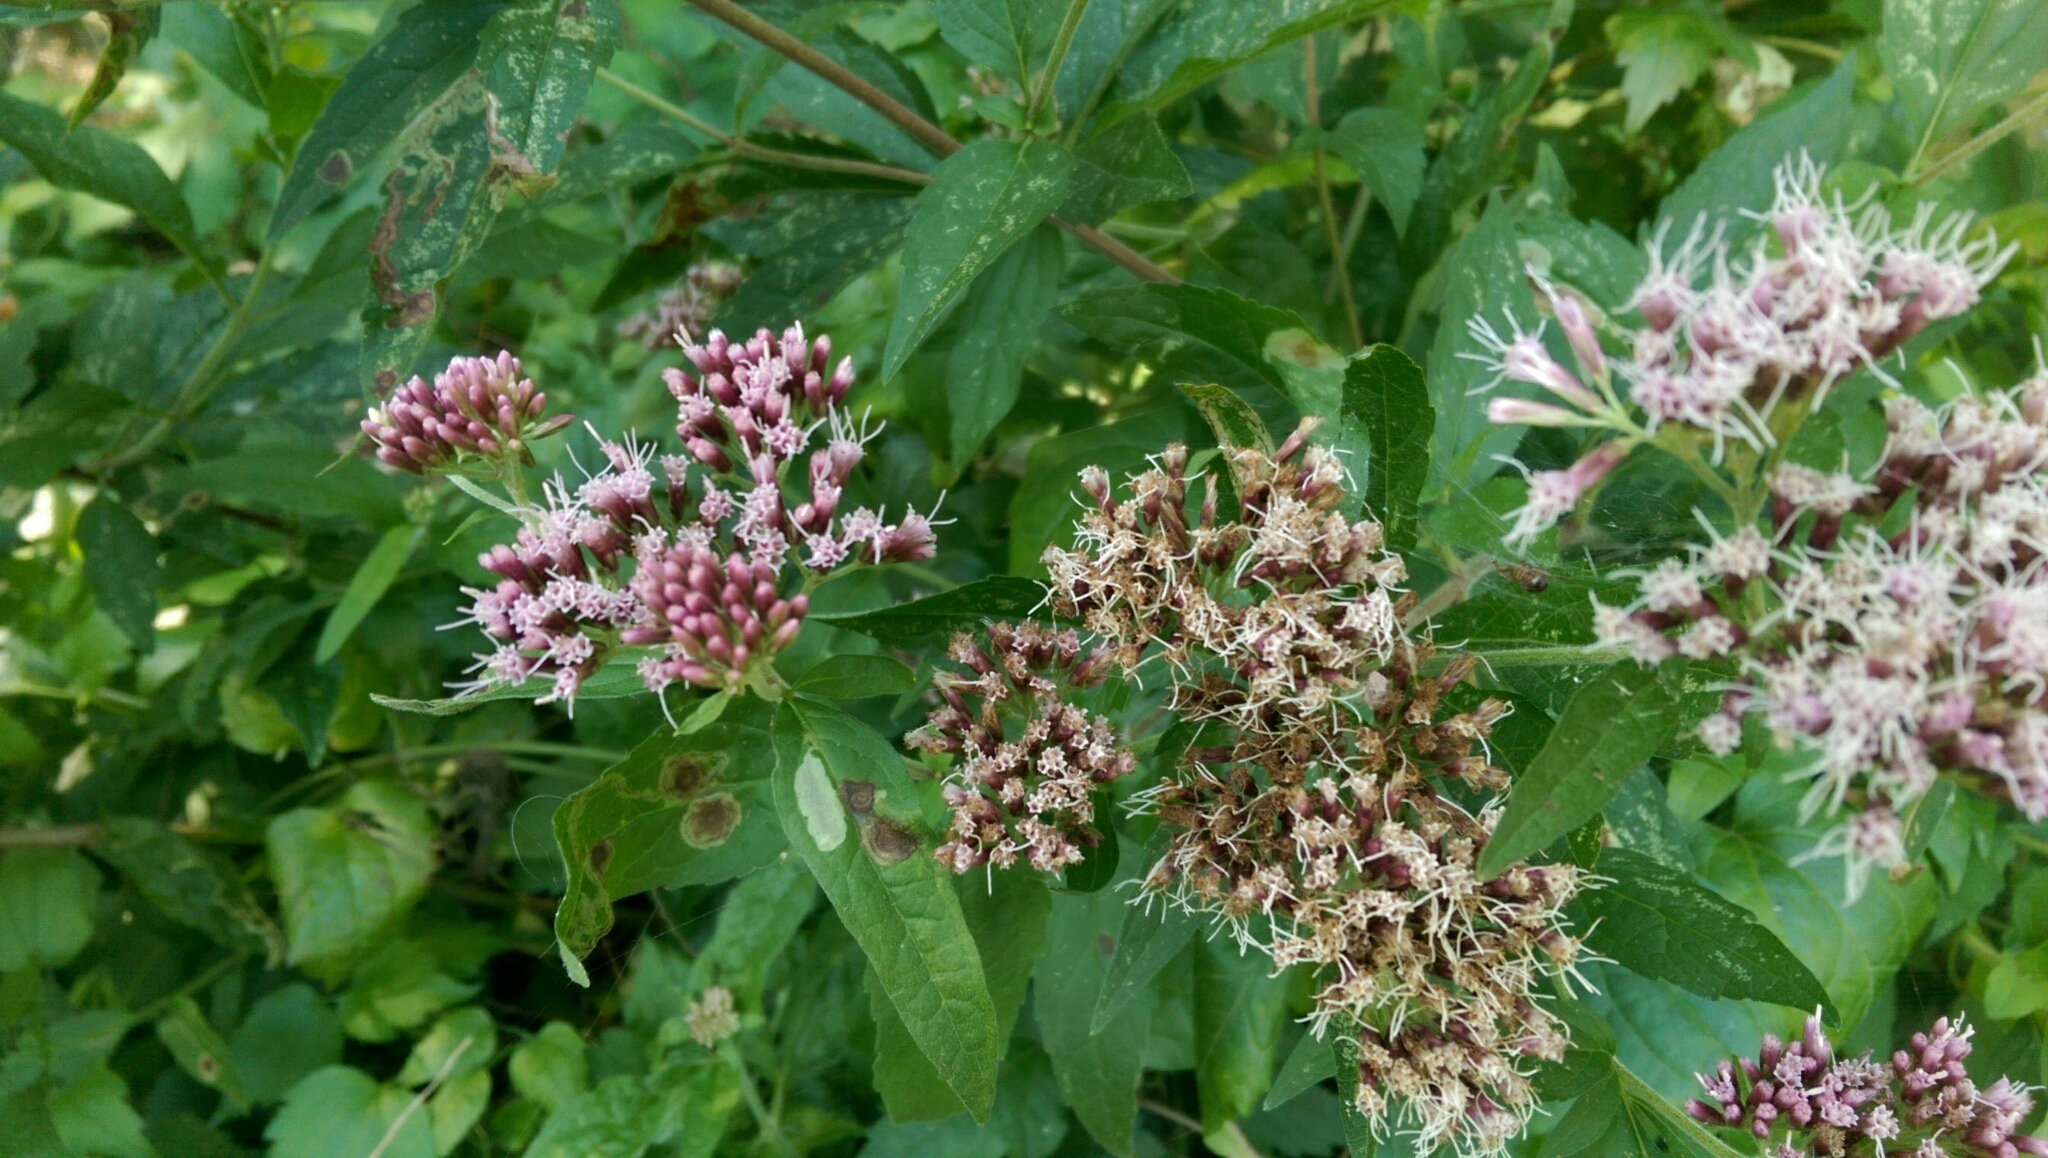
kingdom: Plantae
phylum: Tracheophyta
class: Magnoliopsida
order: Asterales
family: Asteraceae
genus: Eupatorium
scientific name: Eupatorium cannabinum
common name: Hemp-agrimony
